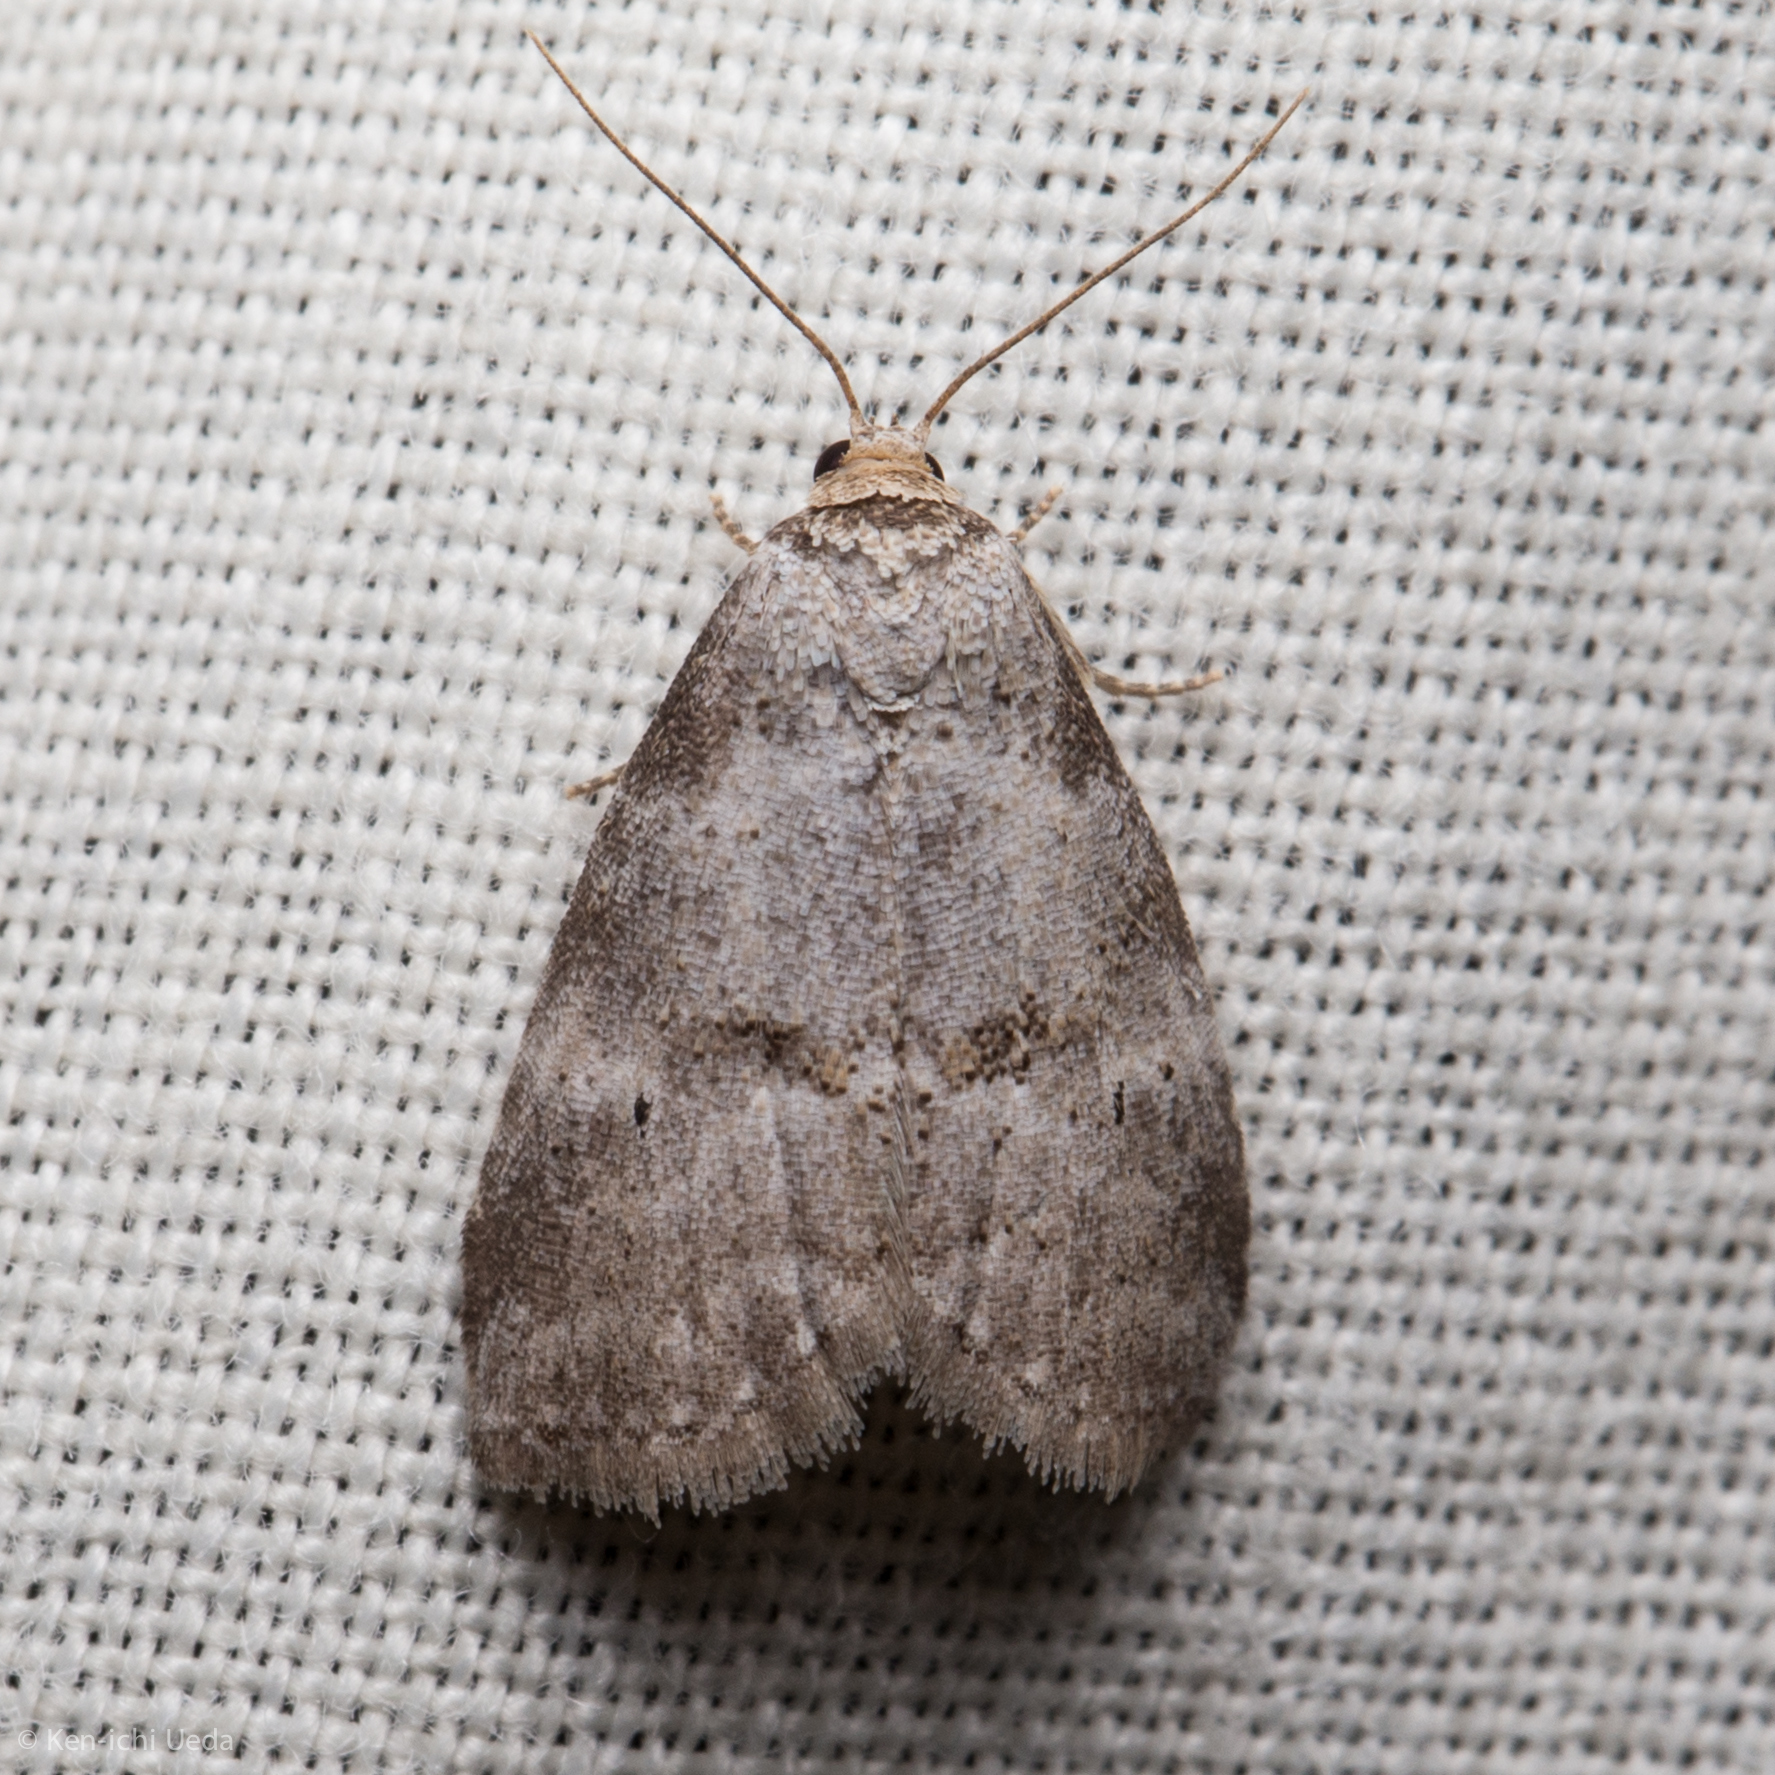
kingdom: Animalia
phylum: Arthropoda
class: Insecta
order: Lepidoptera
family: Erebidae
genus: Hyperstrotia
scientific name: Hyperstrotia pervertens
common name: Dotted graylet
